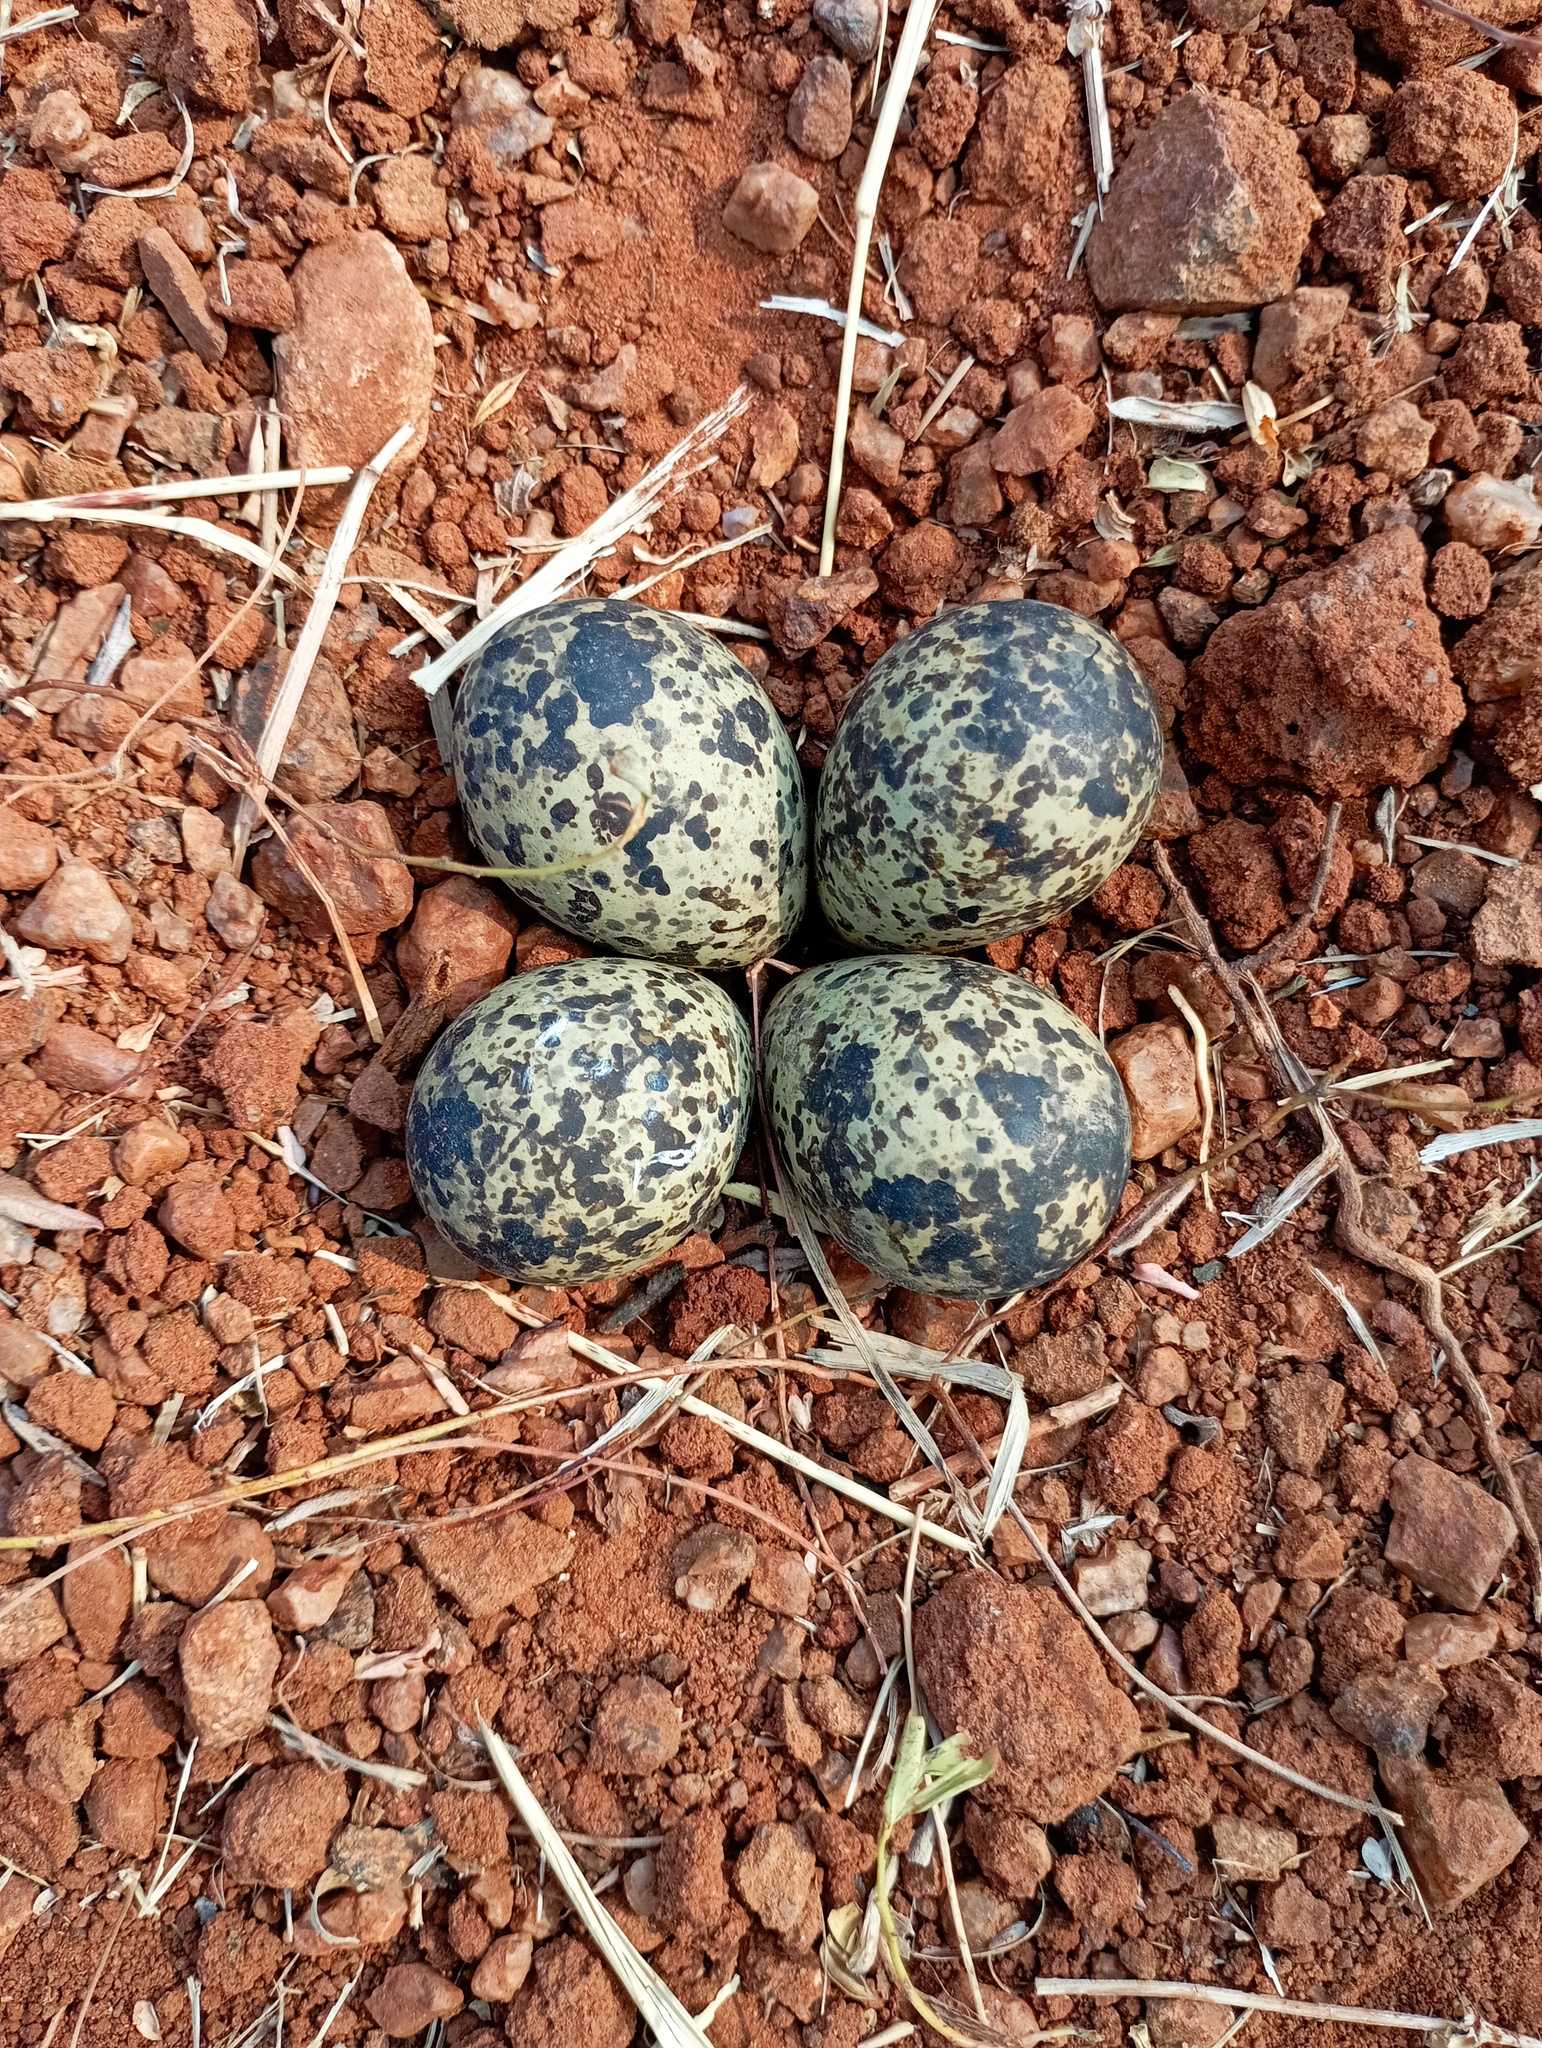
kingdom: Animalia
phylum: Chordata
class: Aves
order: Charadriiformes
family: Charadriidae
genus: Vanellus
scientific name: Vanellus indicus
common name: Red-wattled lapwing
